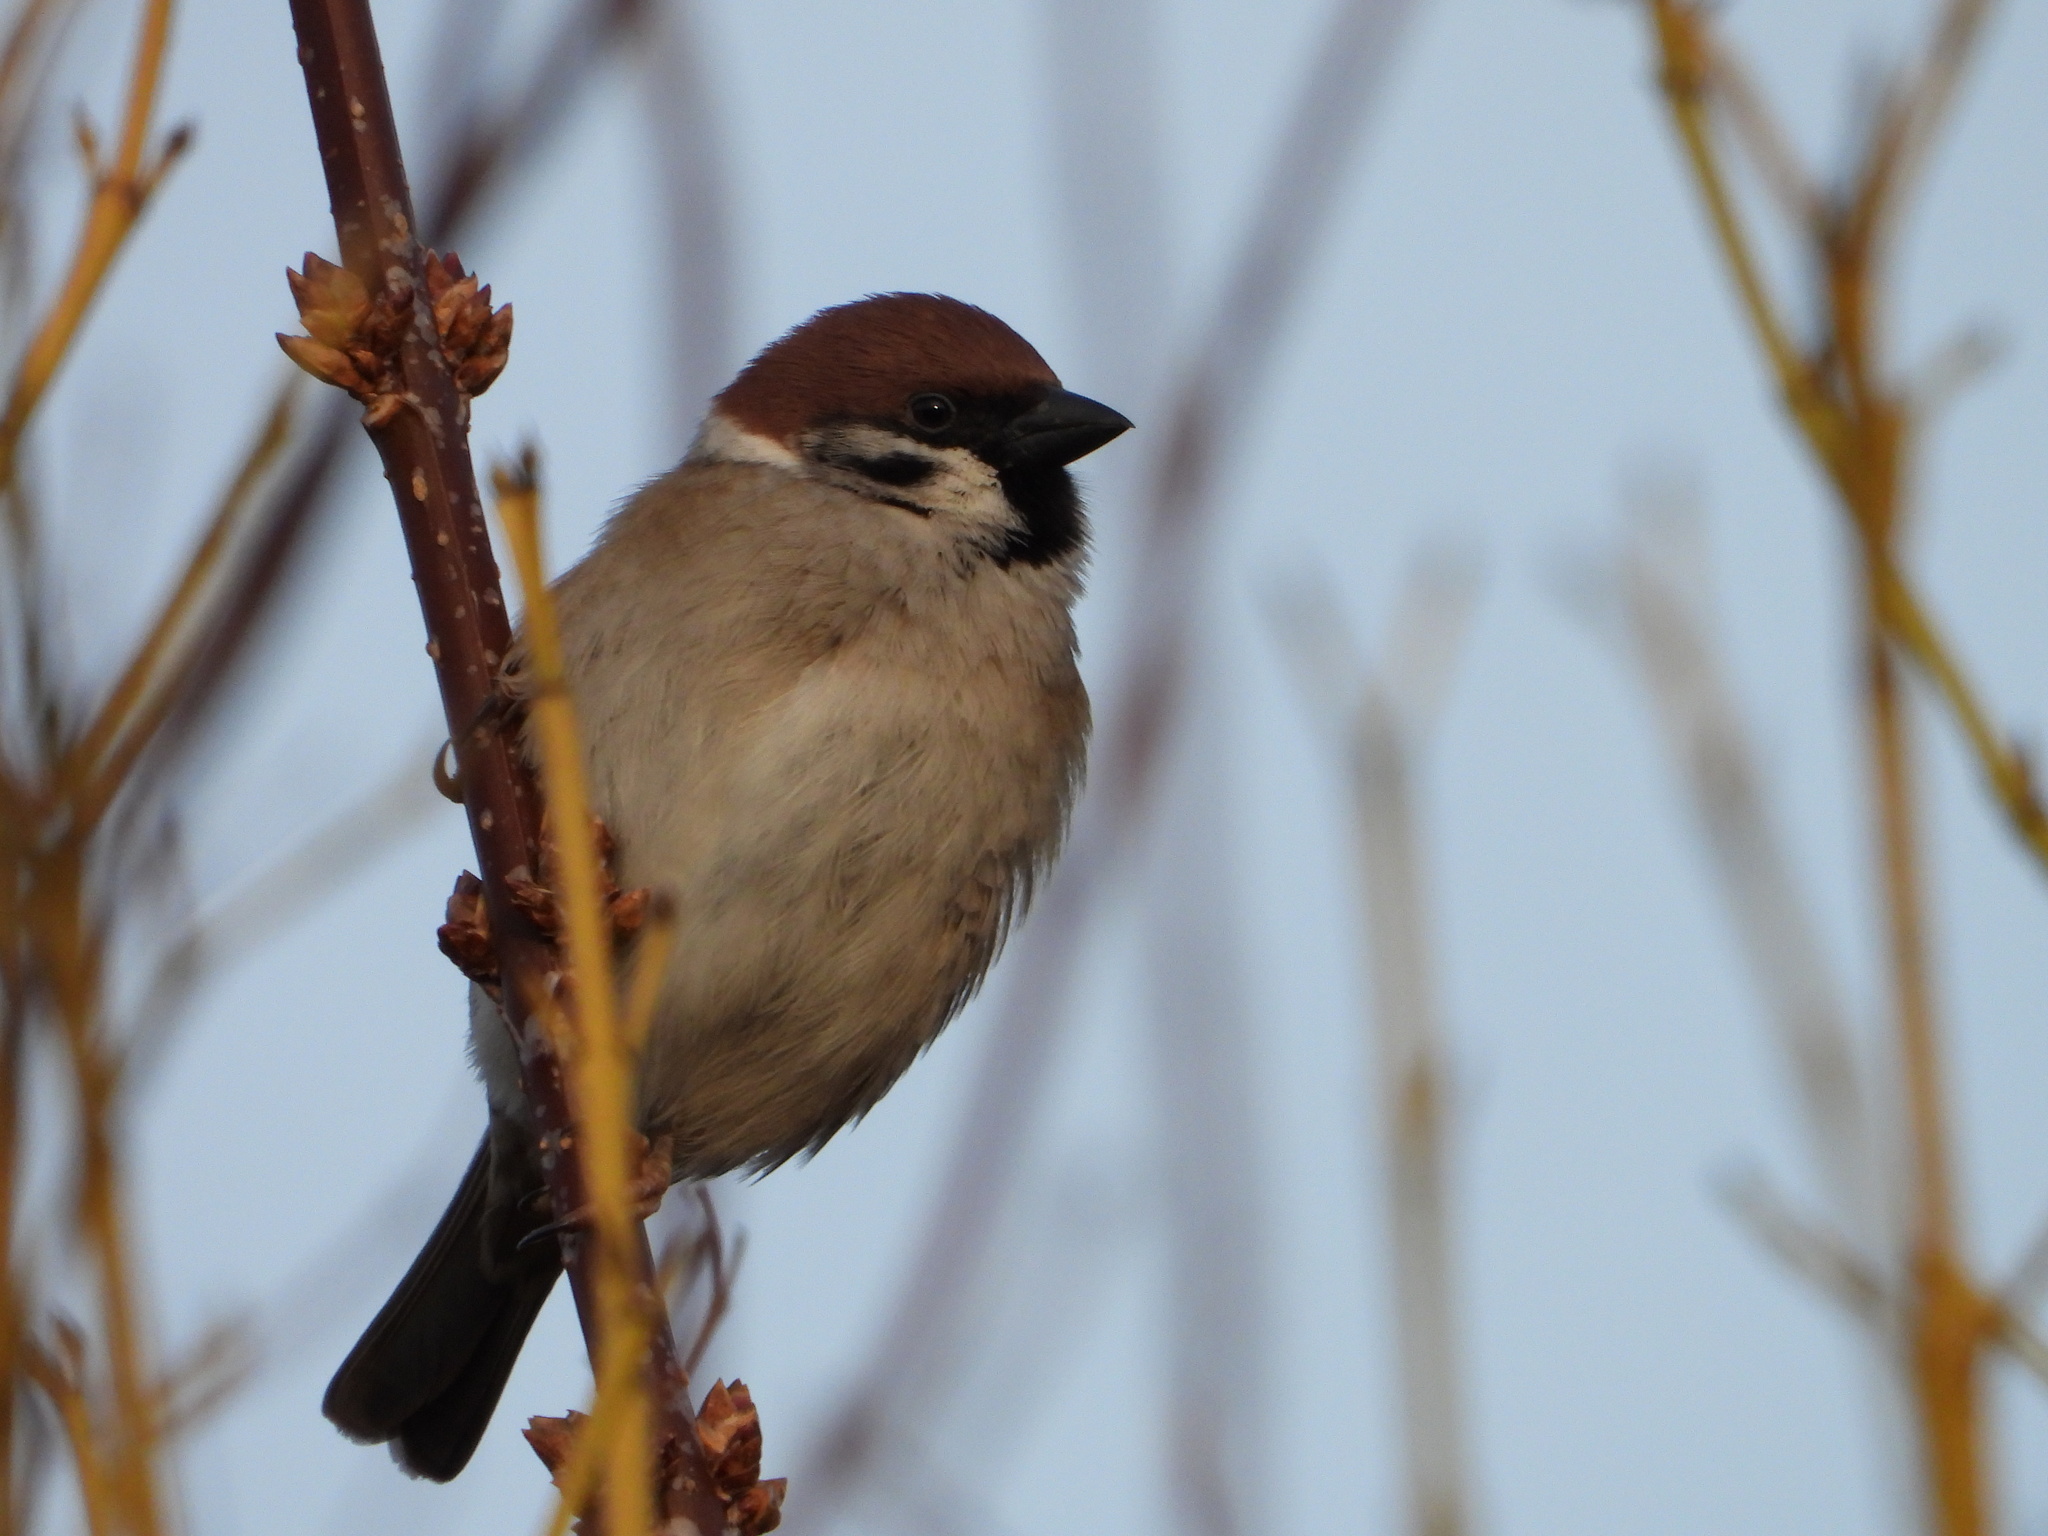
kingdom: Animalia
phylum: Chordata
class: Aves
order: Passeriformes
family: Passeridae
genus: Passer
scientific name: Passer montanus
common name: Eurasian tree sparrow
